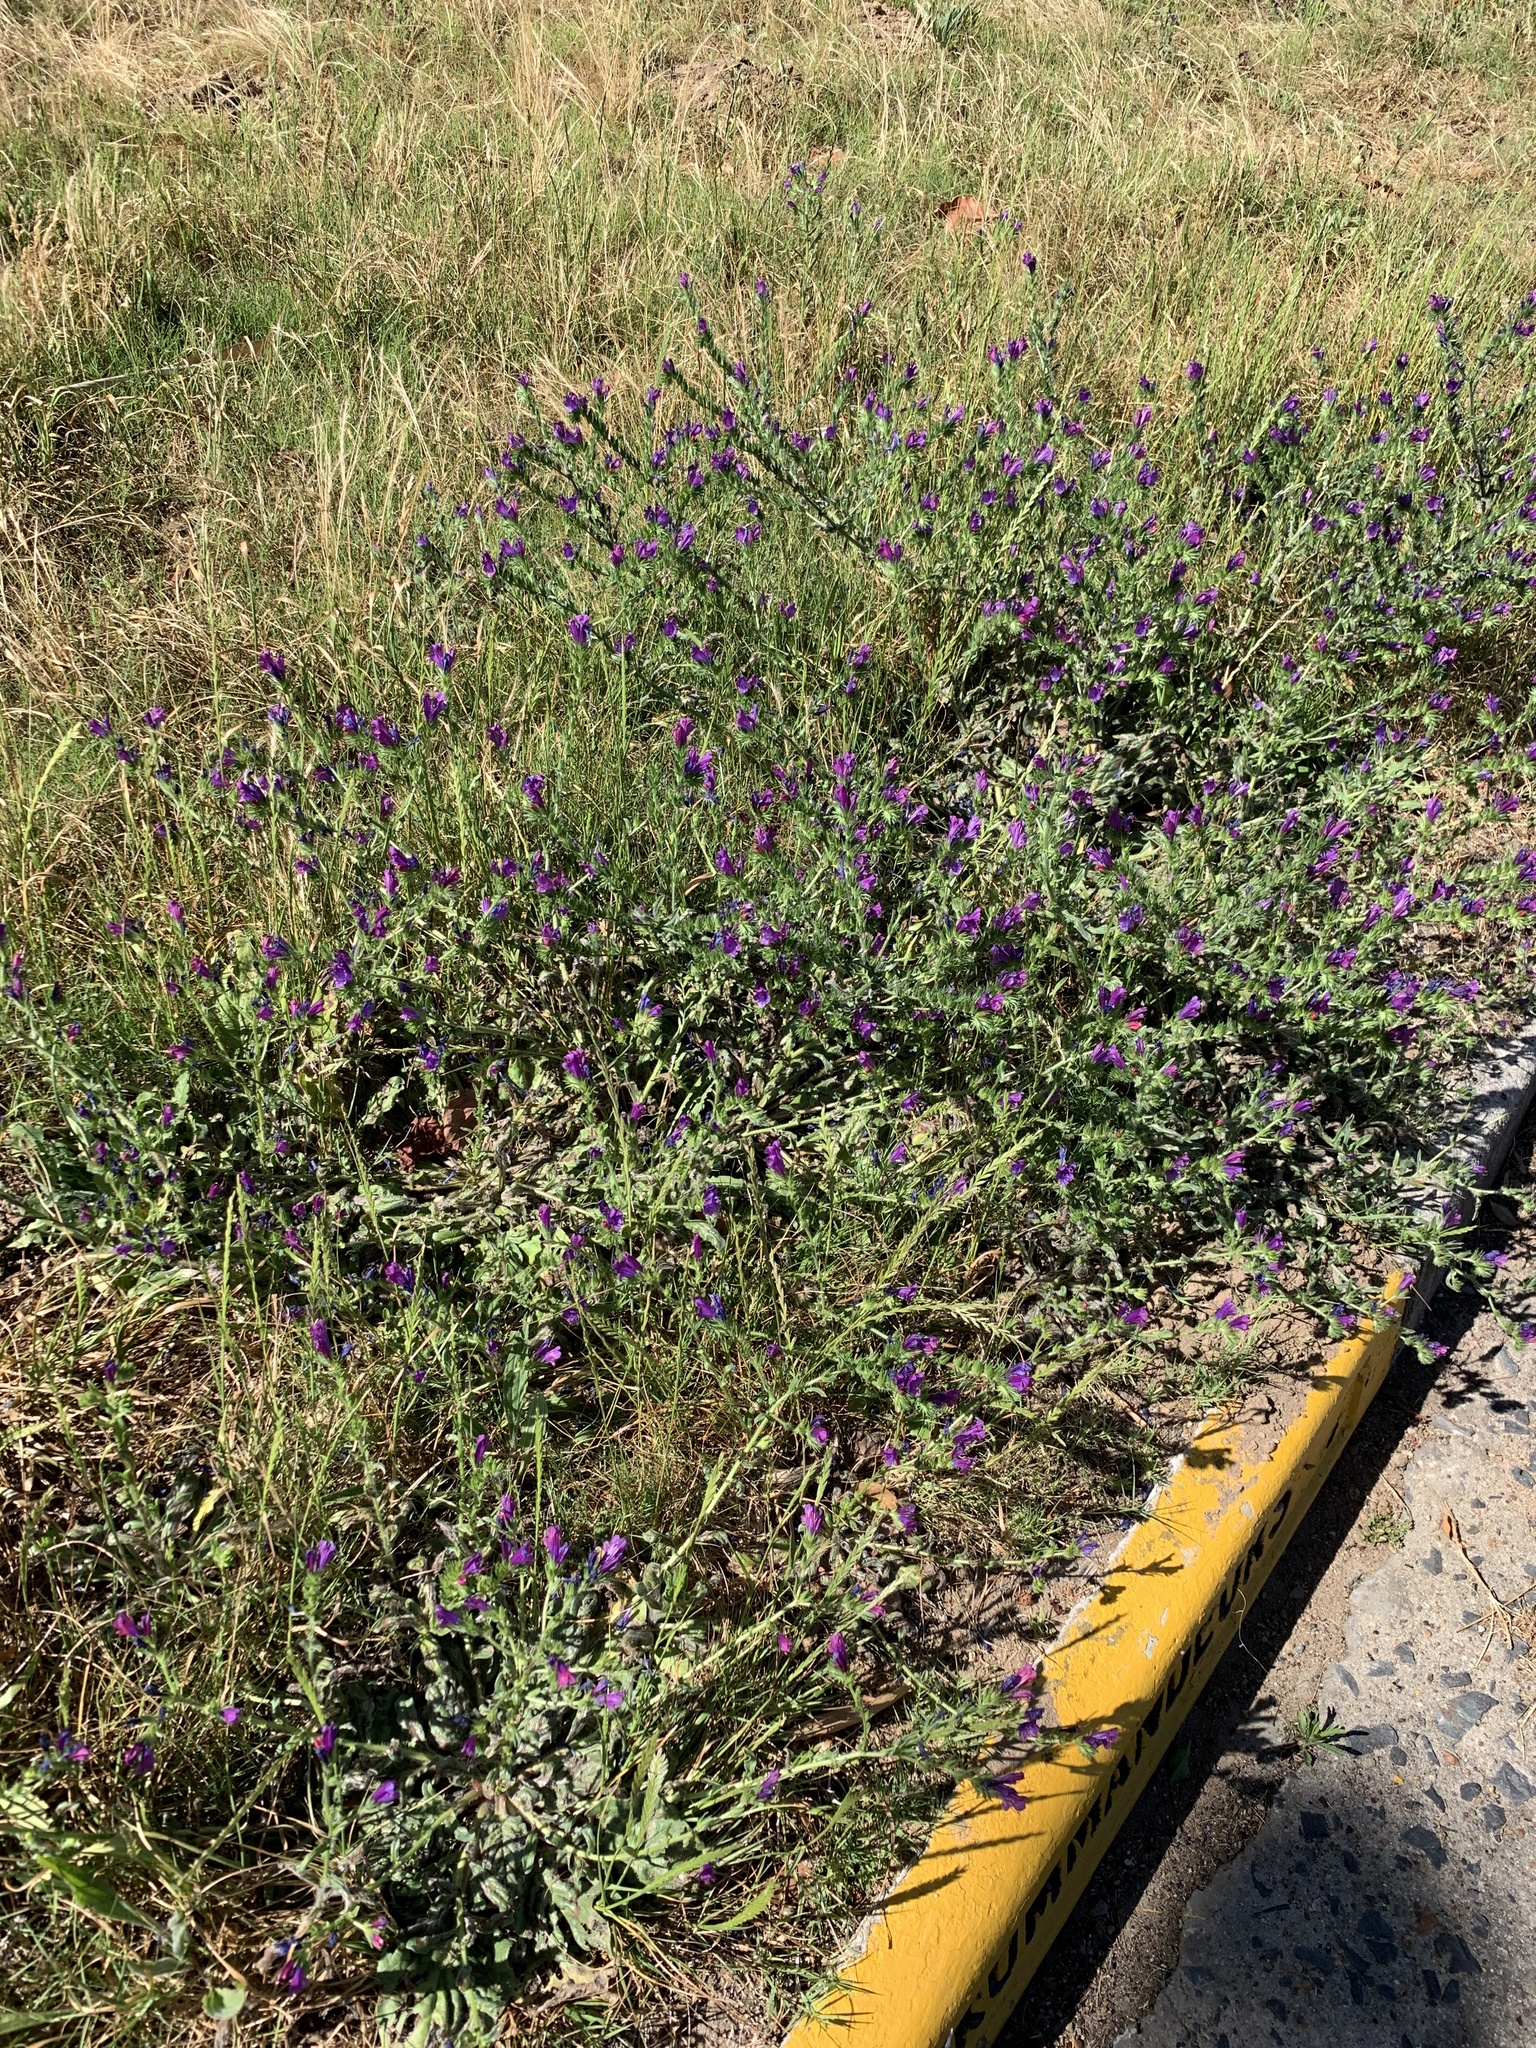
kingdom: Plantae
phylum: Tracheophyta
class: Magnoliopsida
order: Boraginales
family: Boraginaceae
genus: Echium
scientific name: Echium plantagineum
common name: Purple viper's-bugloss
